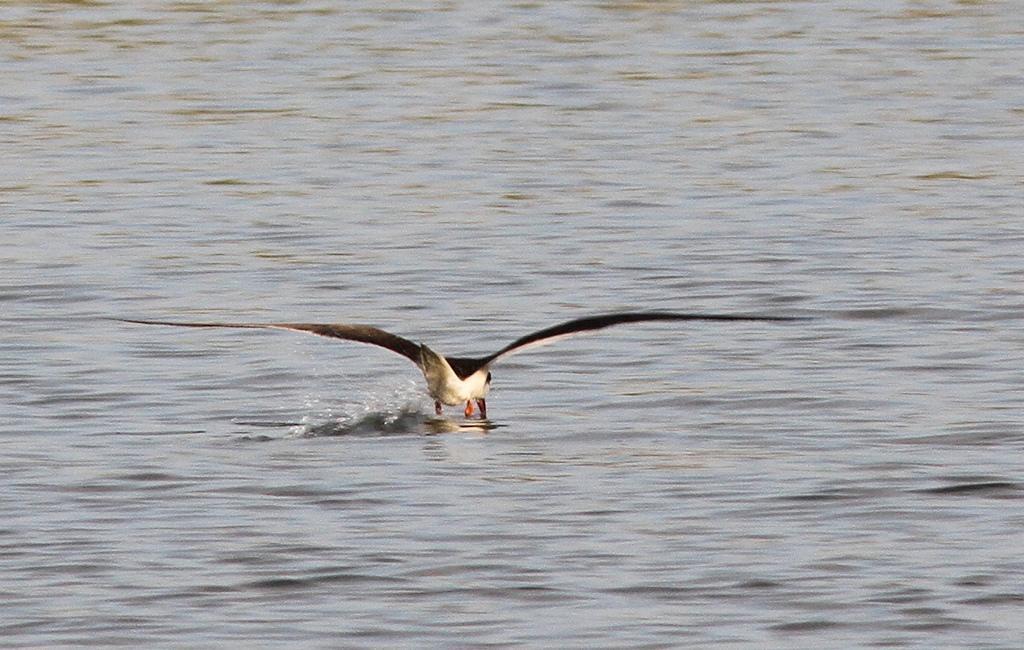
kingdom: Animalia
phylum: Chordata
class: Aves
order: Charadriiformes
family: Laridae
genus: Rynchops
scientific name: Rynchops flavirostris
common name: African skimmer
